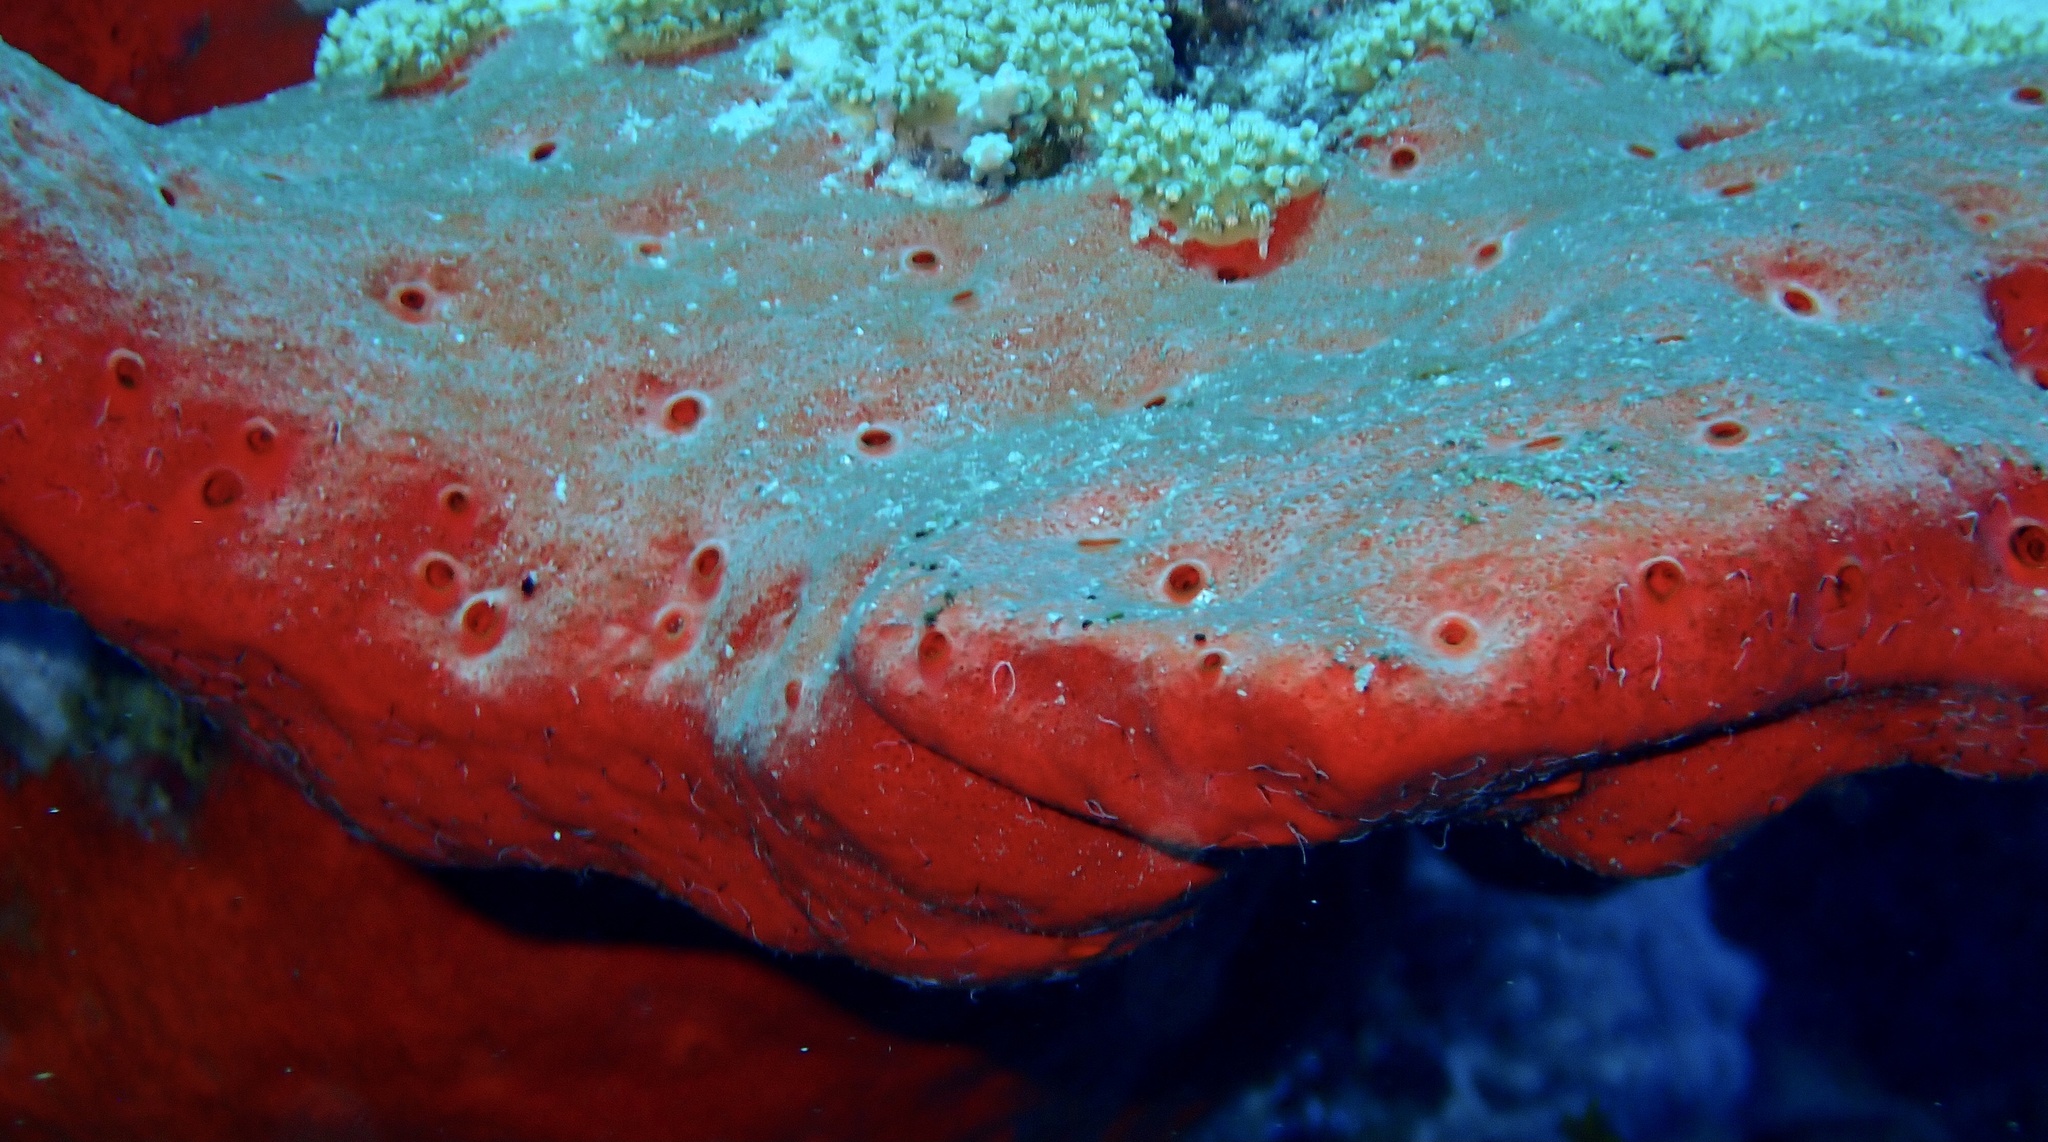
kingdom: Animalia
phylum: Porifera
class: Demospongiae
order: Clionaida
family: Clionaidae
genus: Pione
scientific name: Pione mussae
